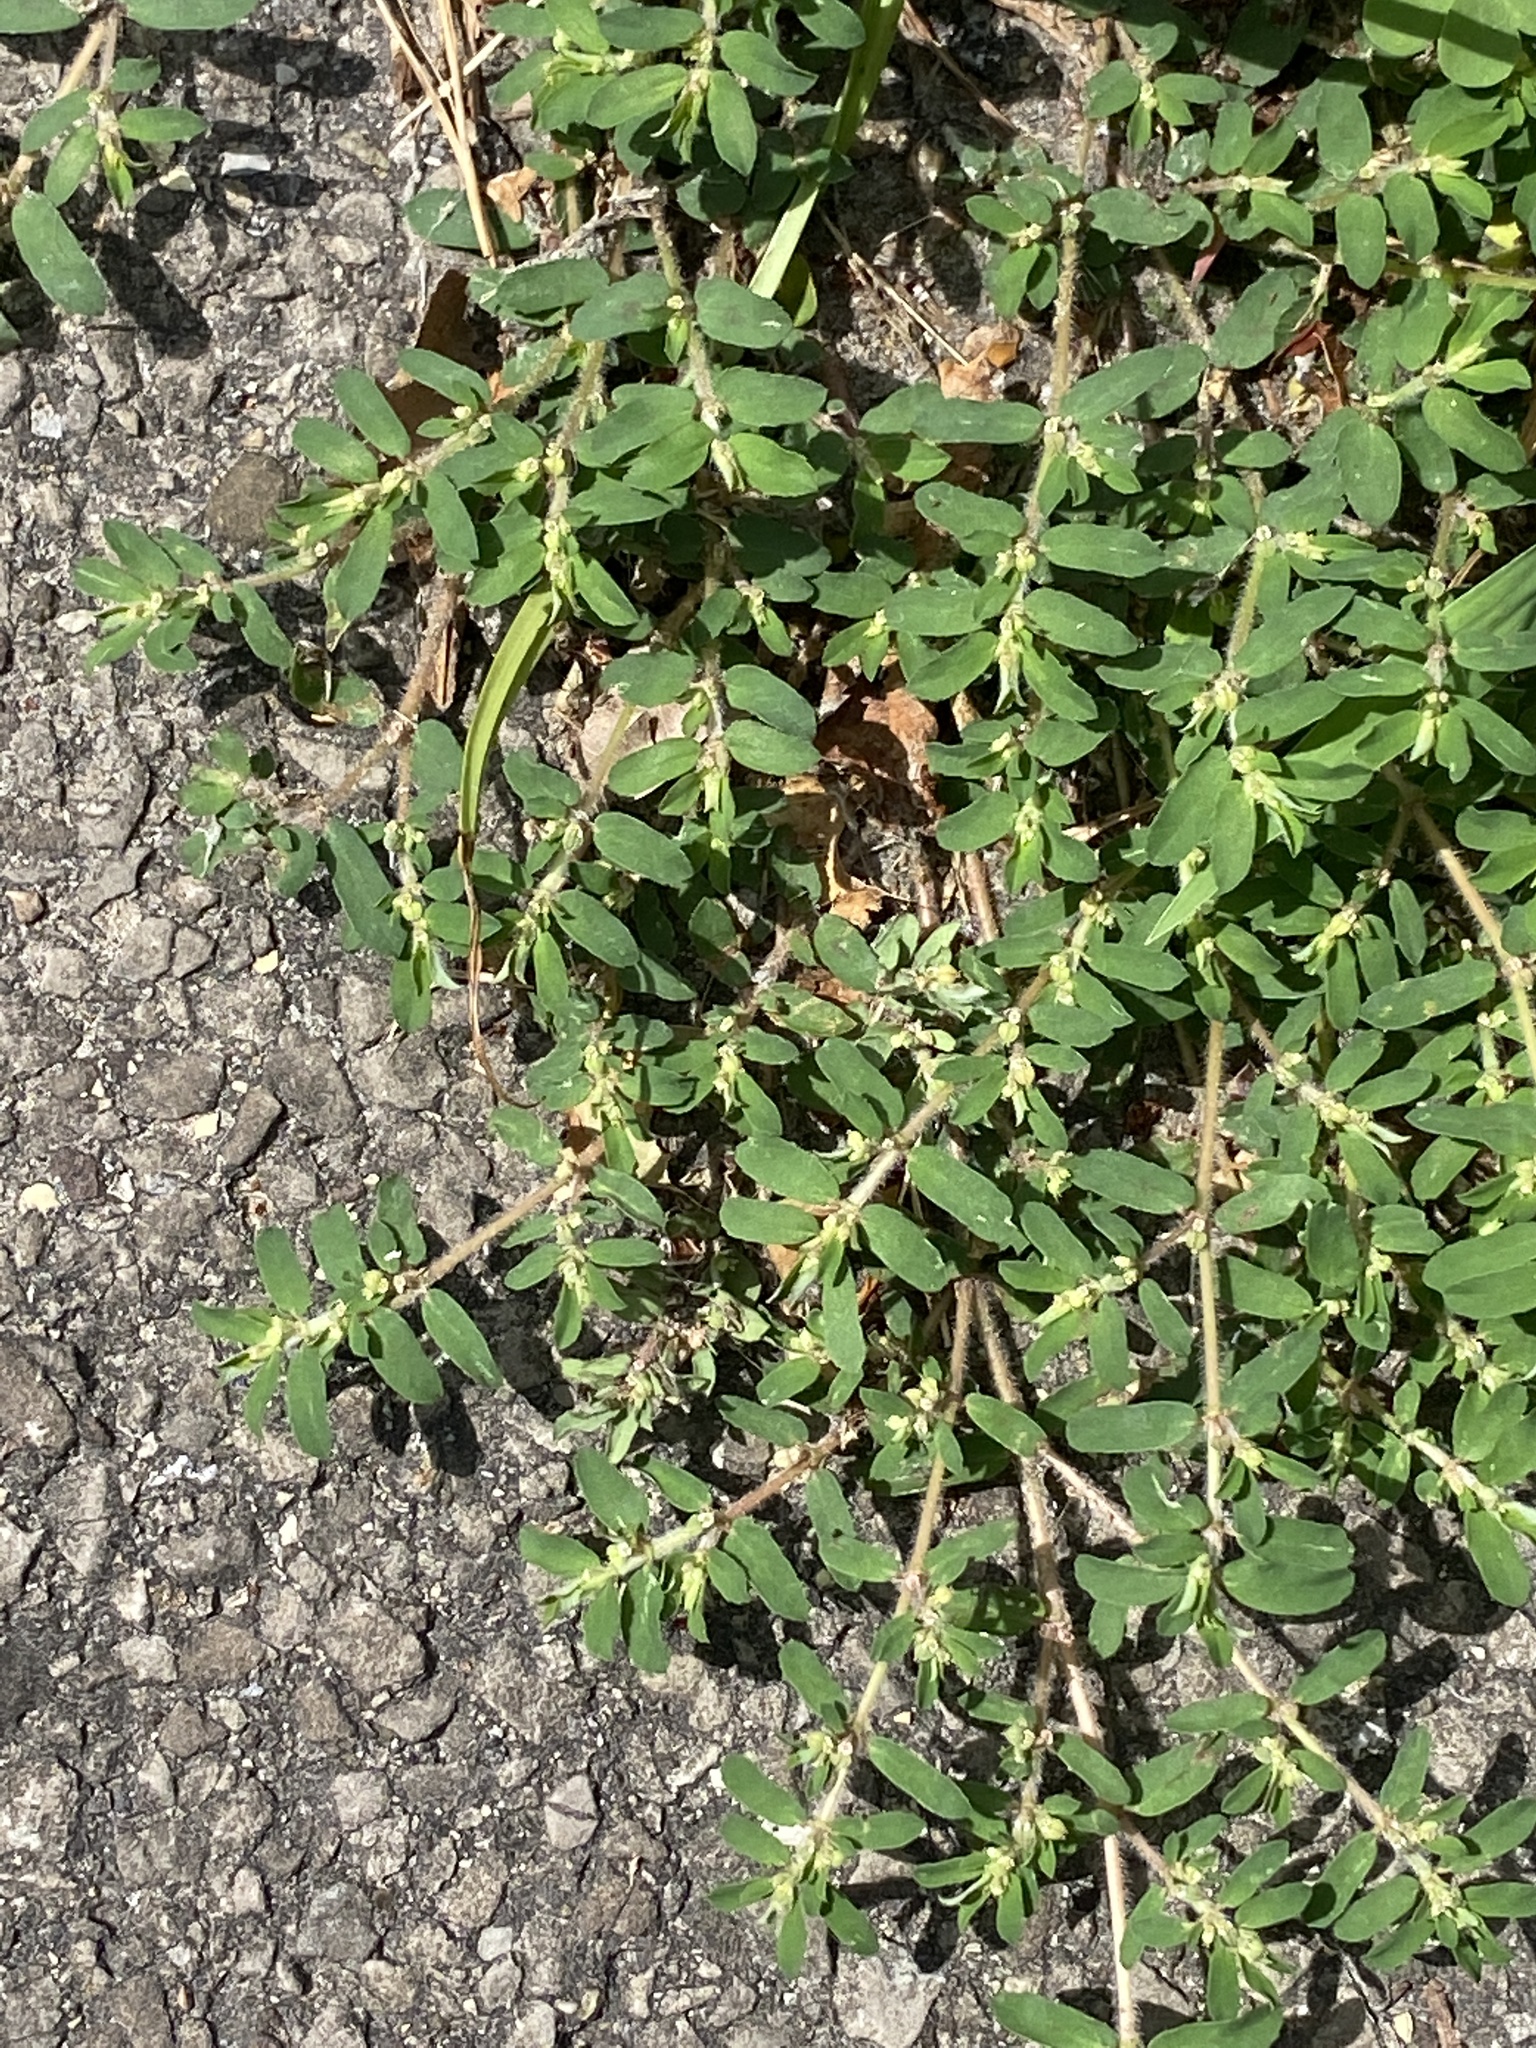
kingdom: Plantae
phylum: Tracheophyta
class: Magnoliopsida
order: Malpighiales
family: Euphorbiaceae
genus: Euphorbia
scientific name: Euphorbia maculata
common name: Spotted spurge
